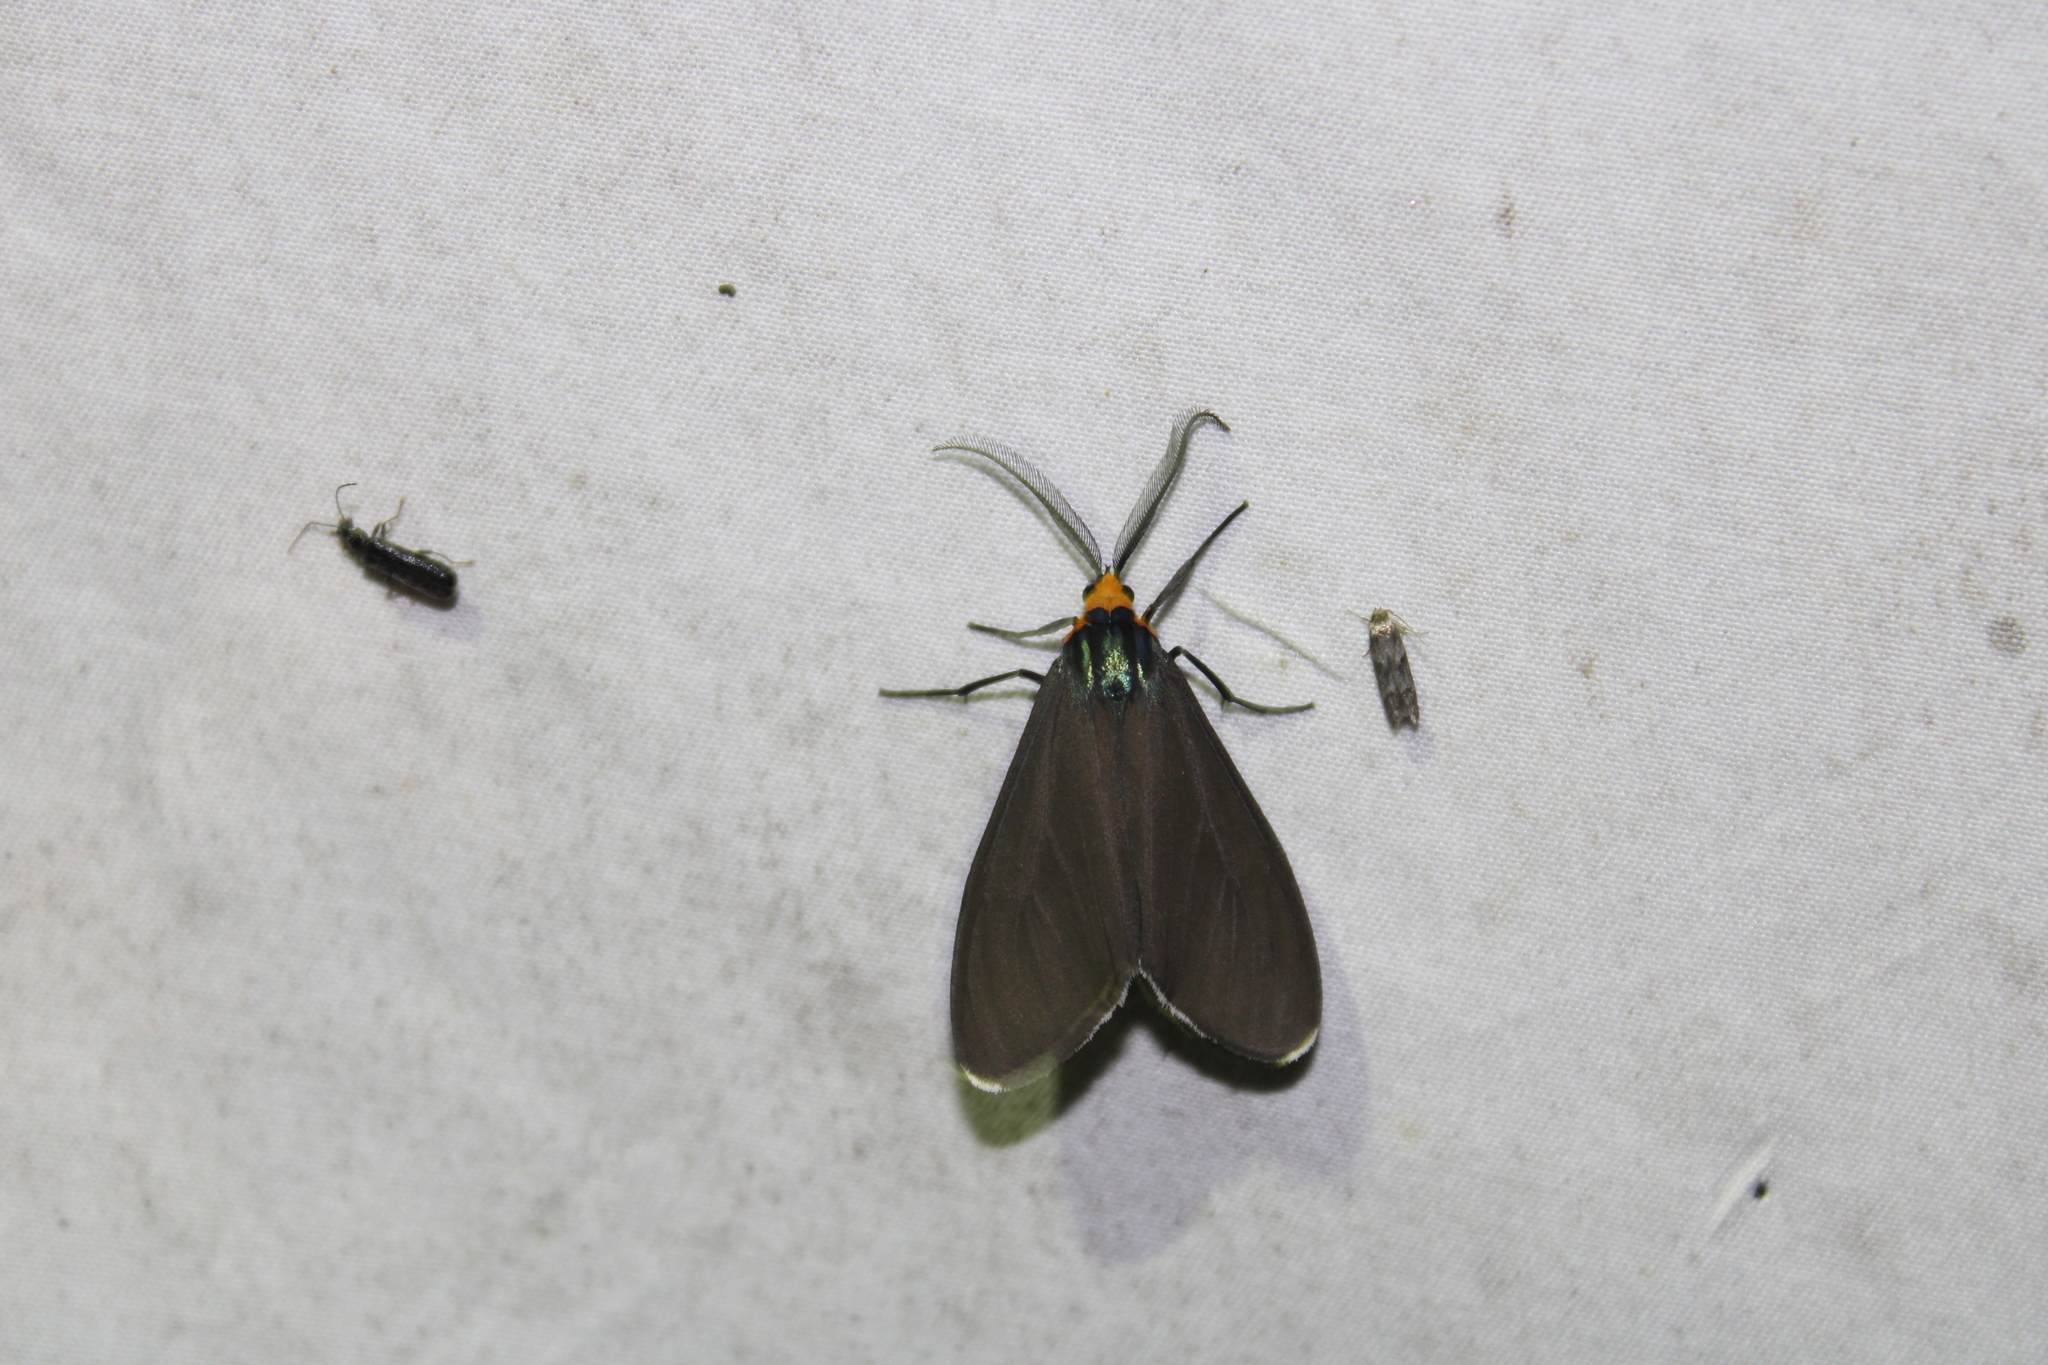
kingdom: Animalia
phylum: Arthropoda
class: Insecta
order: Lepidoptera
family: Erebidae
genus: Ctenucha
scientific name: Ctenucha virginica
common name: Virginia ctenucha moth
